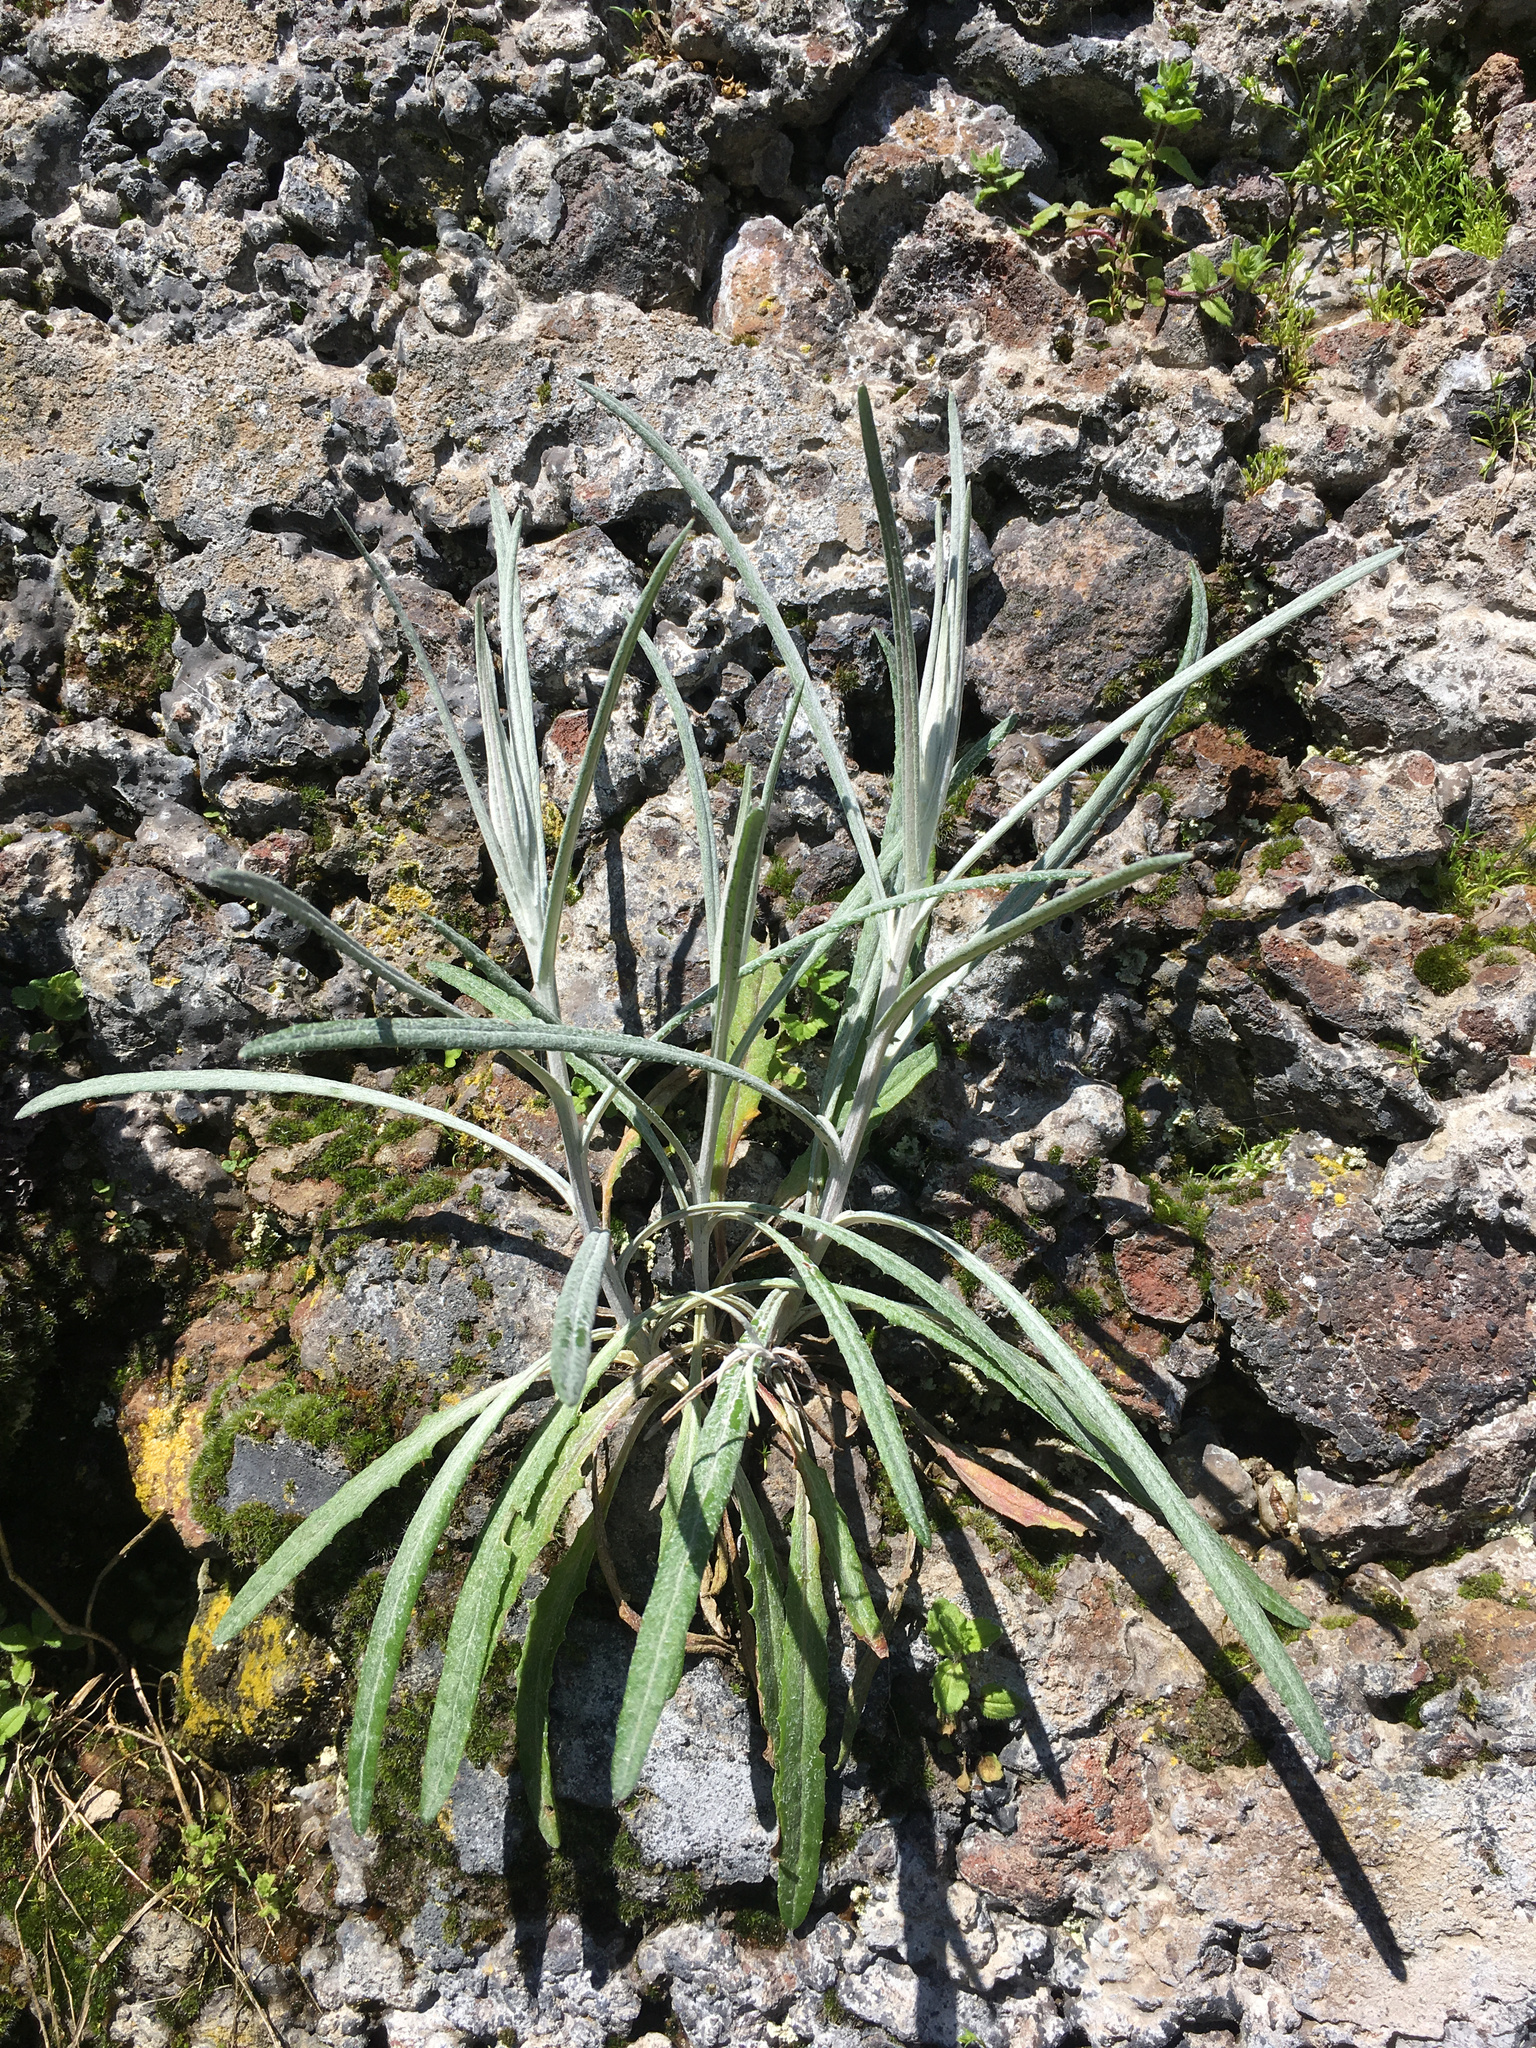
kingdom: Plantae
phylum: Tracheophyta
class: Magnoliopsida
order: Asterales
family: Asteraceae
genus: Senecio
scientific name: Senecio quadridentatus
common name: Cotton fireweed
